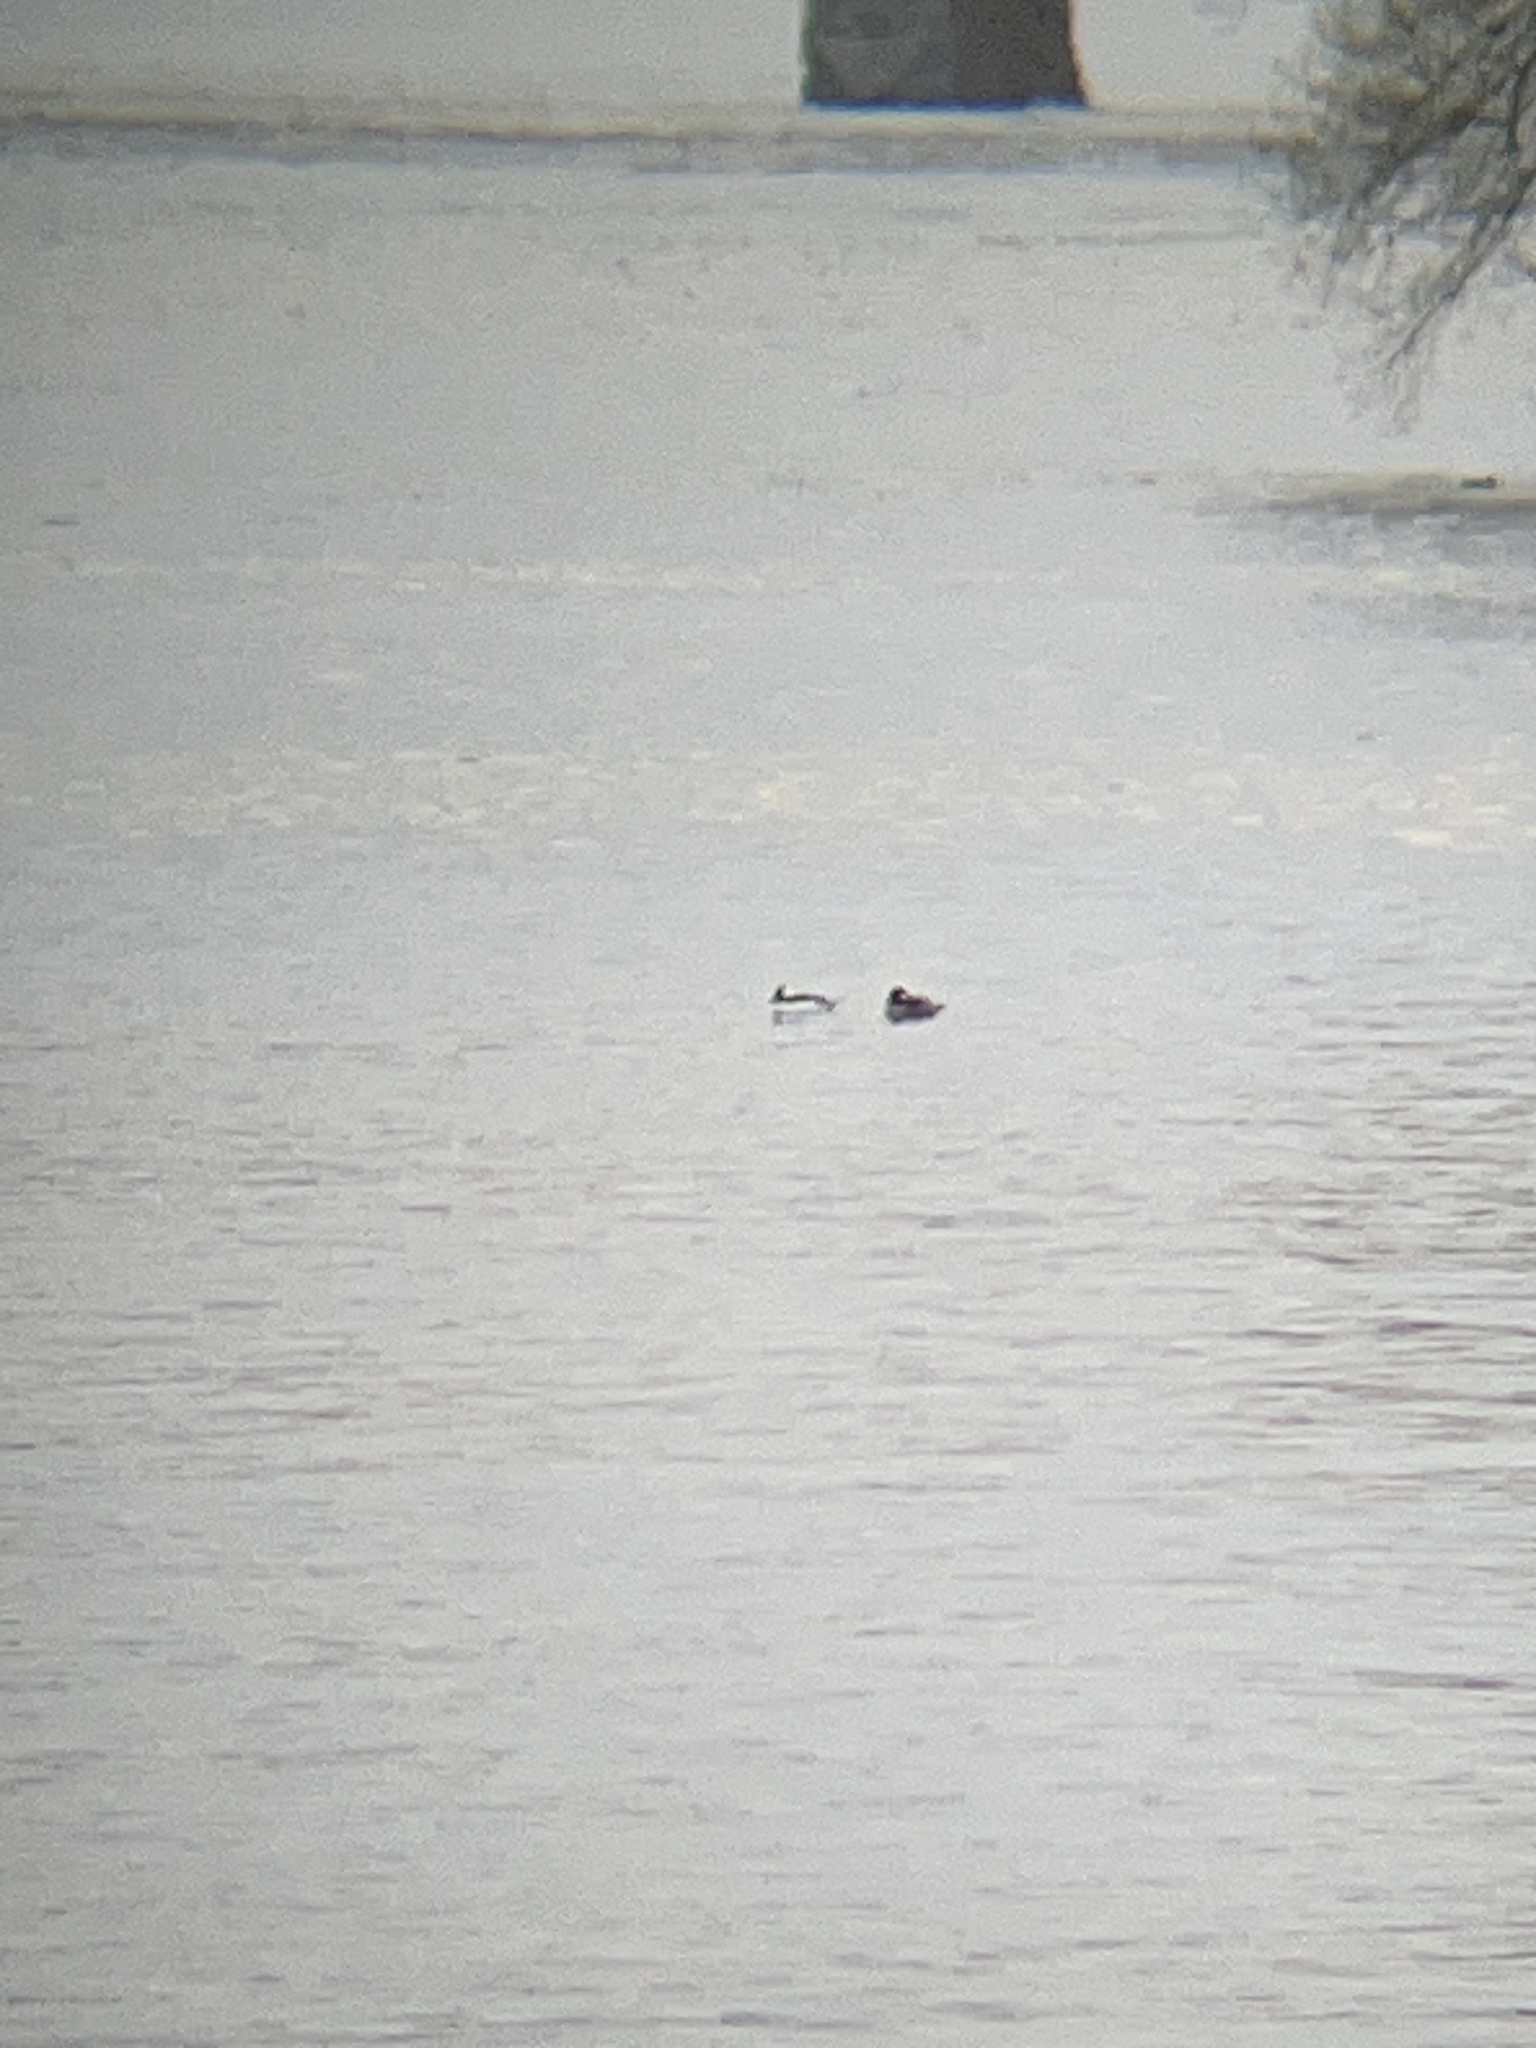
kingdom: Animalia
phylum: Chordata
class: Aves
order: Anseriformes
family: Anatidae
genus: Bucephala
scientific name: Bucephala albeola
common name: Bufflehead
